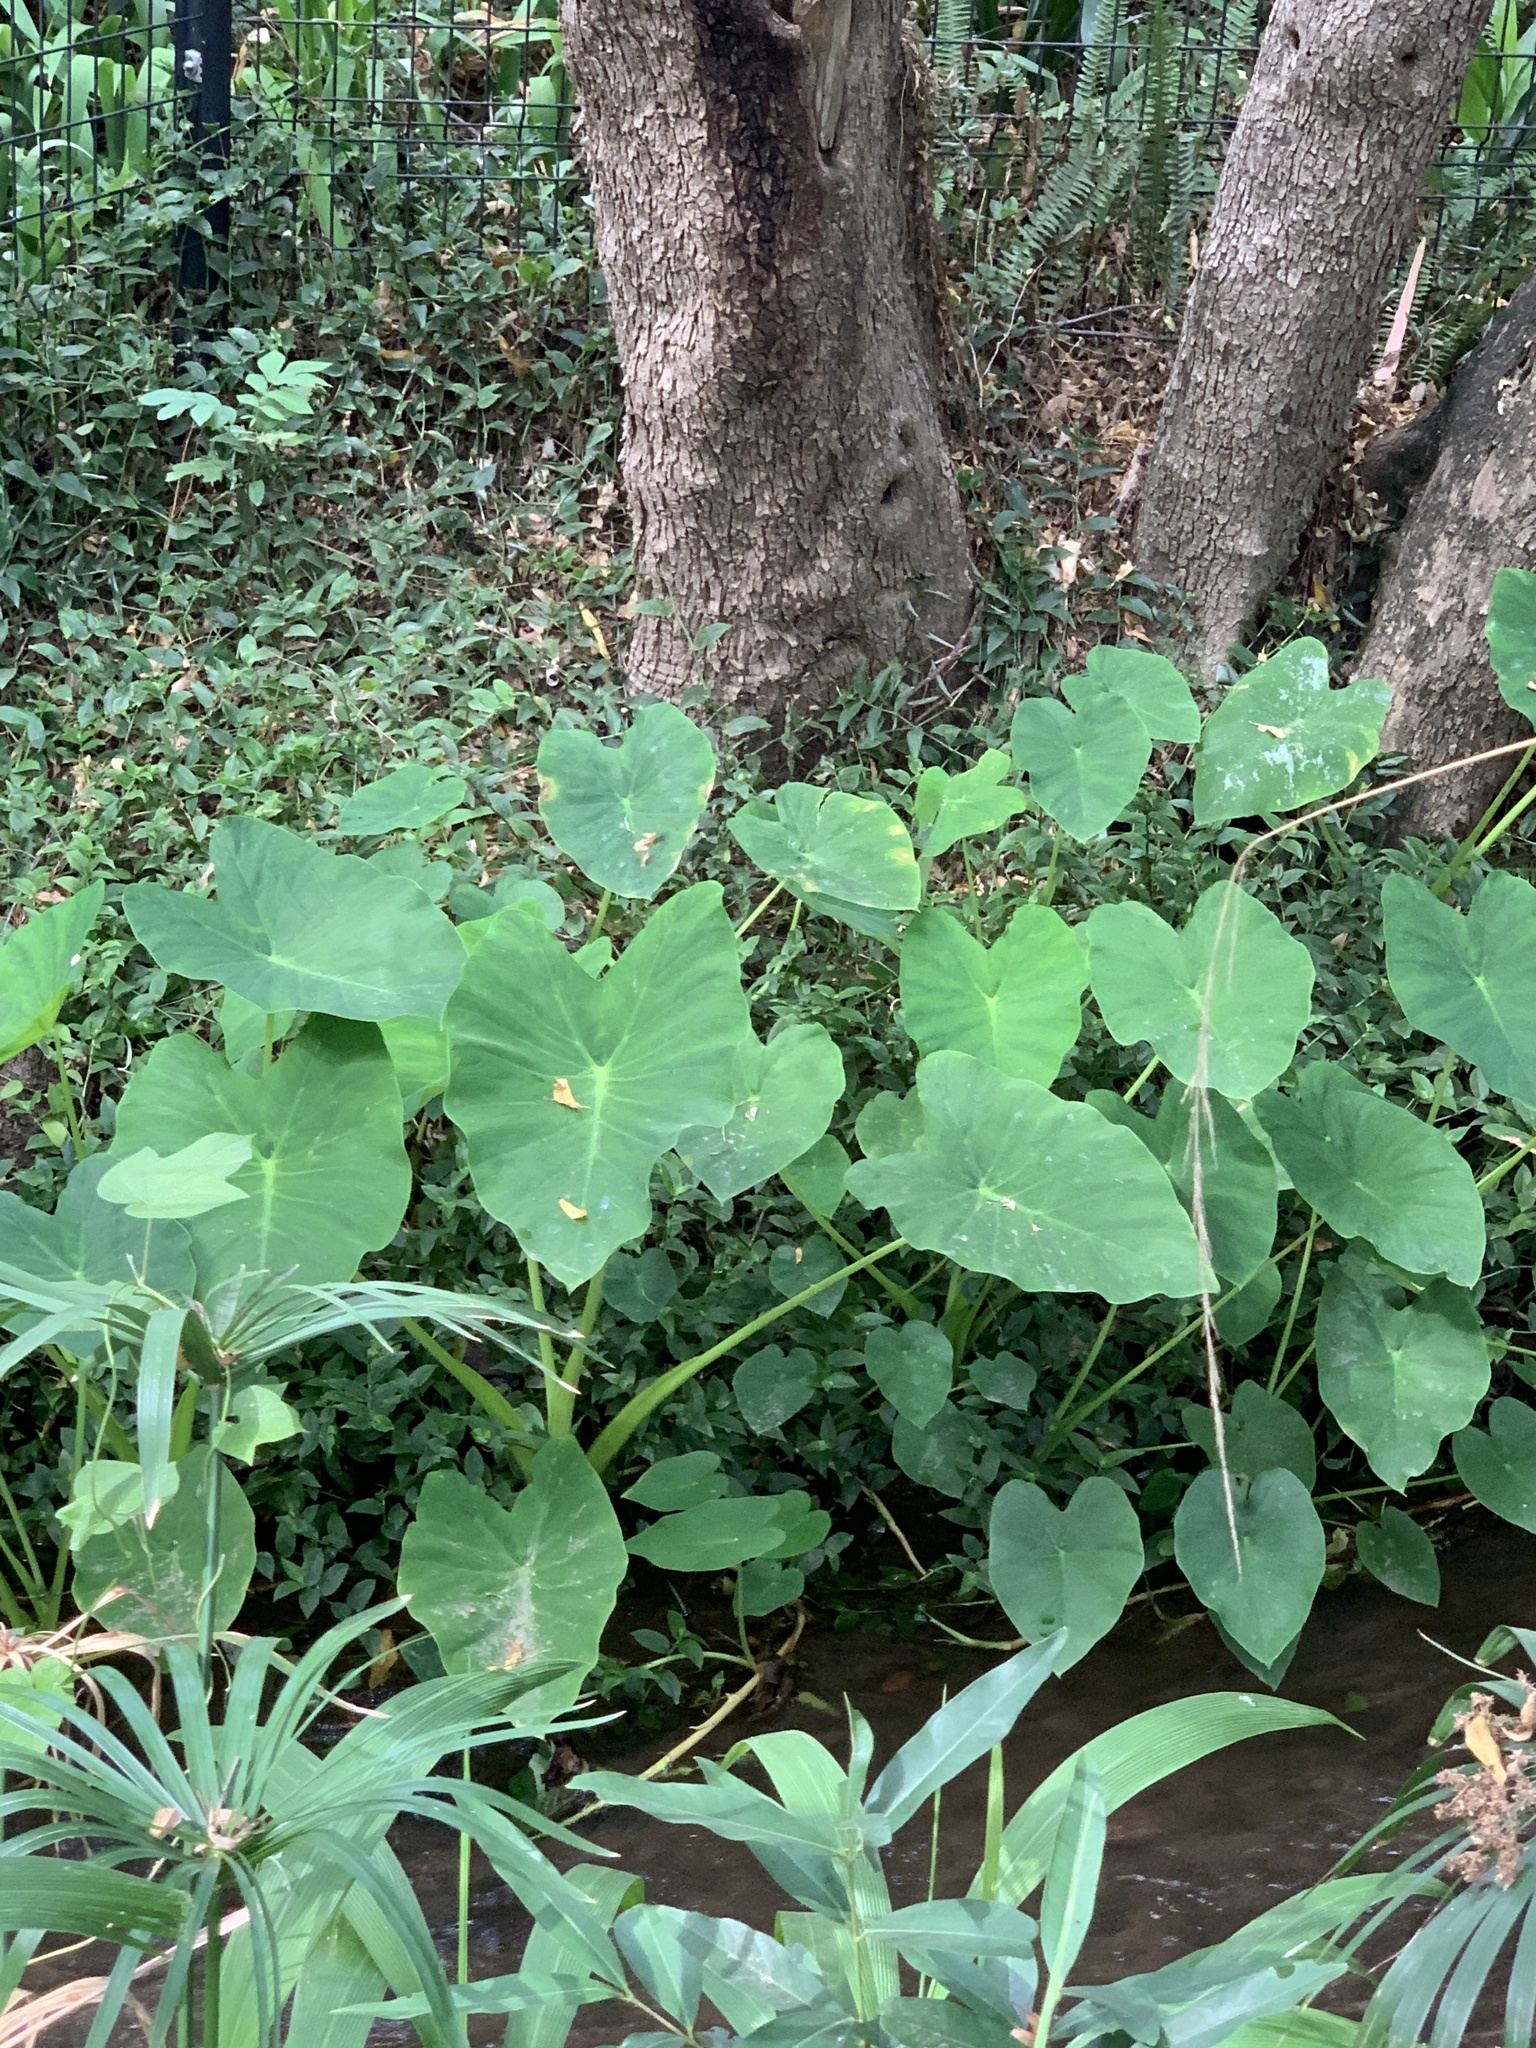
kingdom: Plantae
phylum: Tracheophyta
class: Liliopsida
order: Alismatales
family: Araceae
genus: Colocasia
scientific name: Colocasia esculenta
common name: Taro
